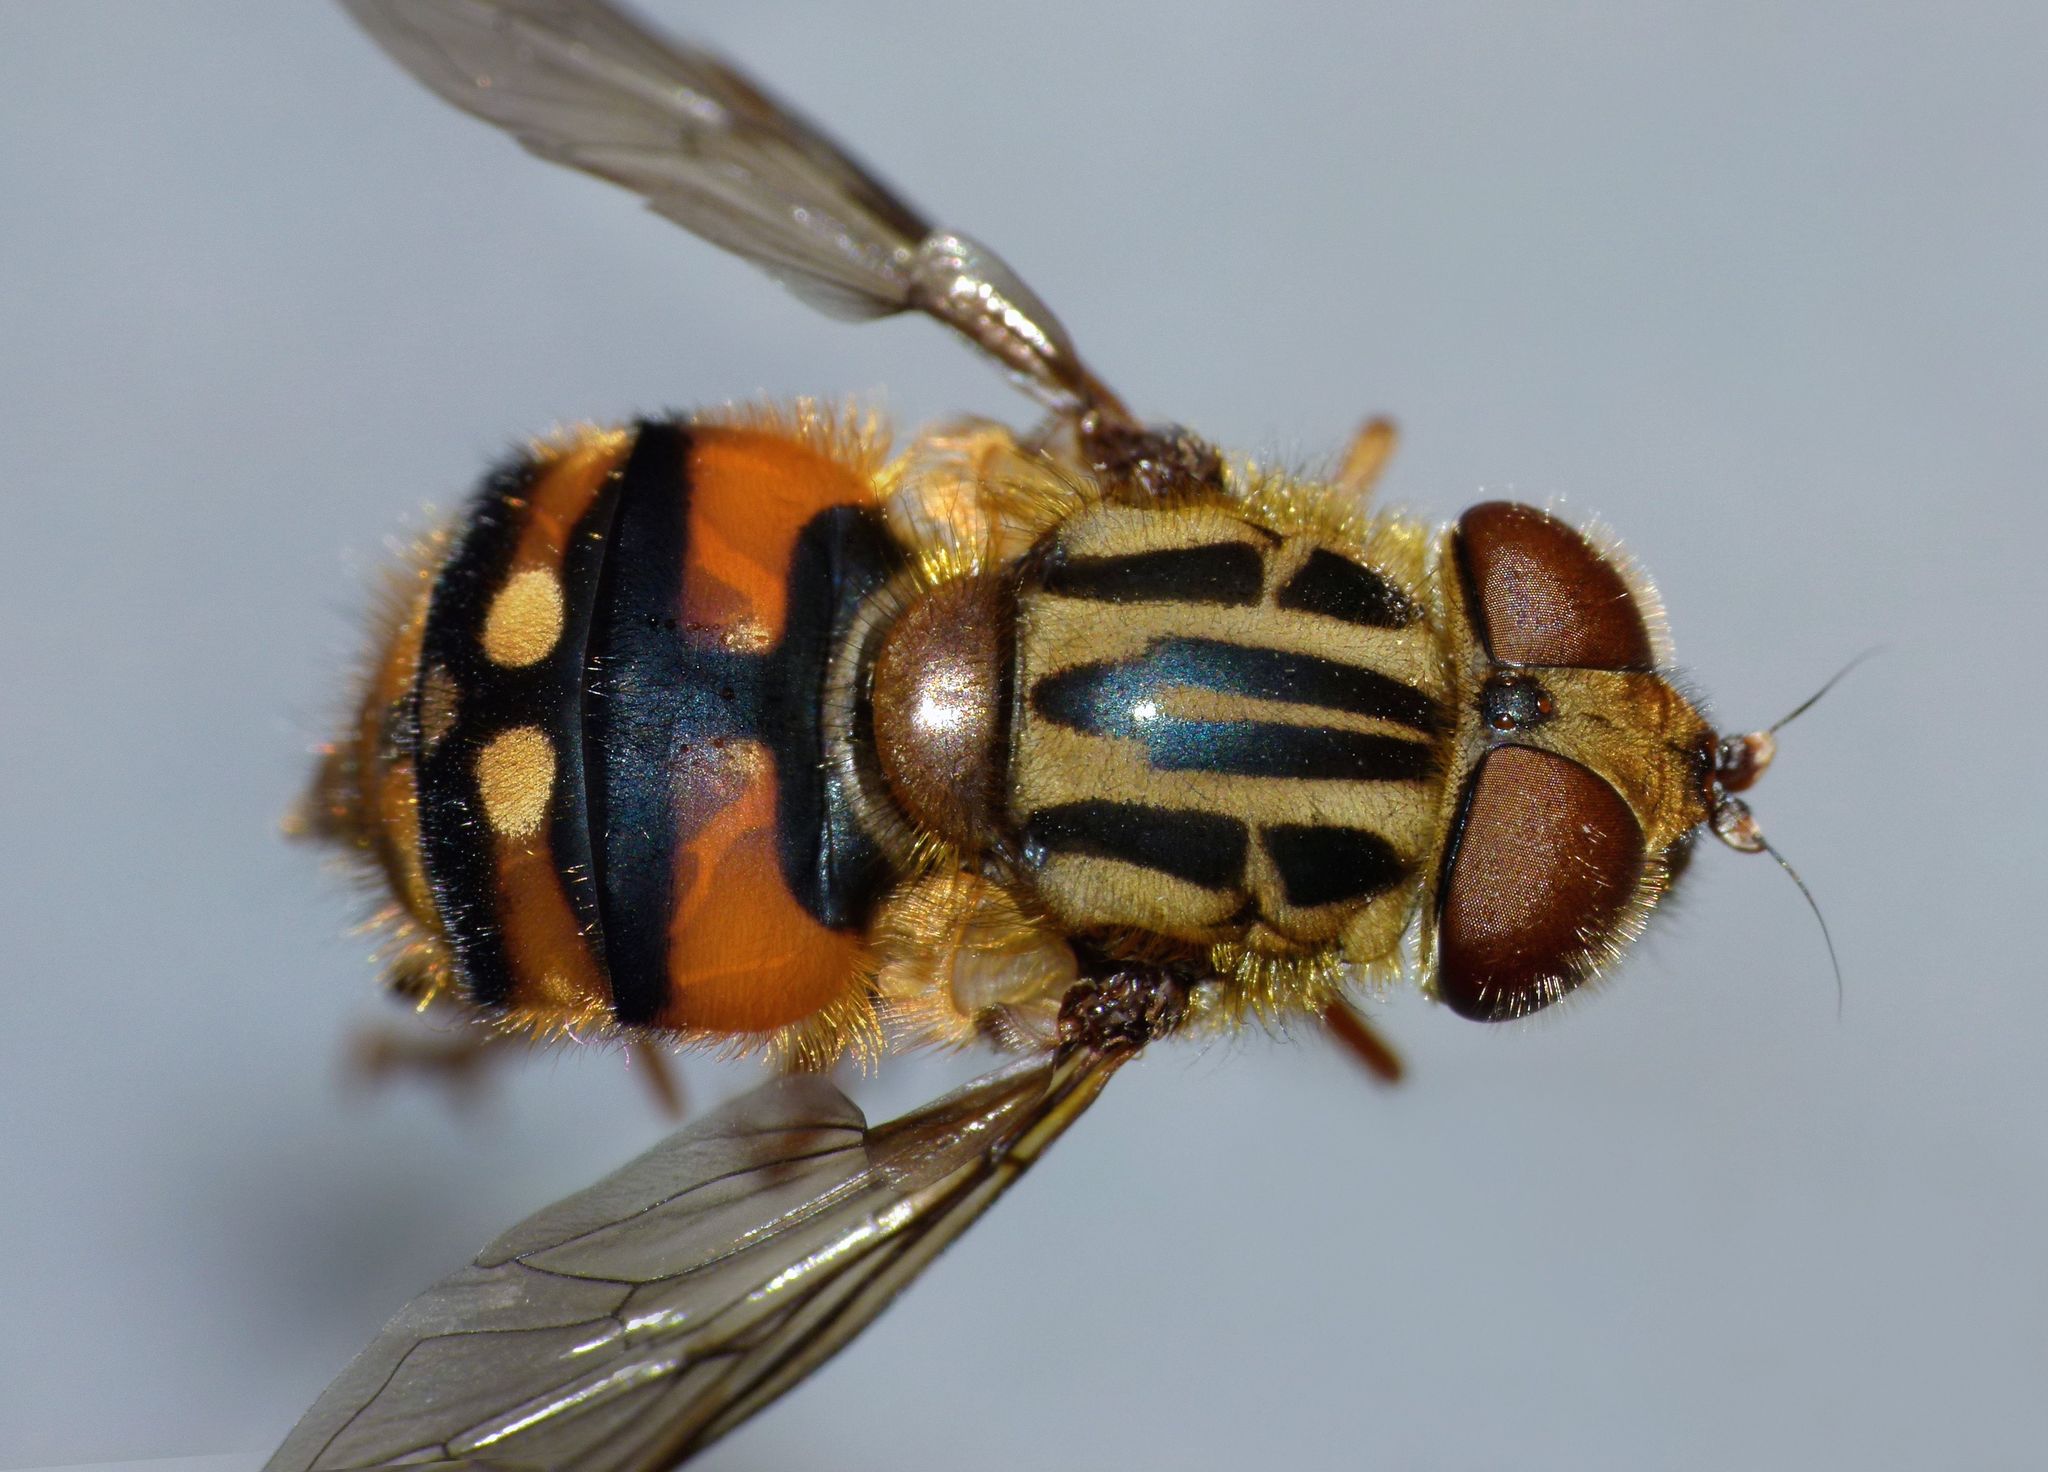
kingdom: Animalia
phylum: Arthropoda
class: Insecta
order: Diptera
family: Syrphidae
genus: Helophilus
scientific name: Helophilus campbelli
